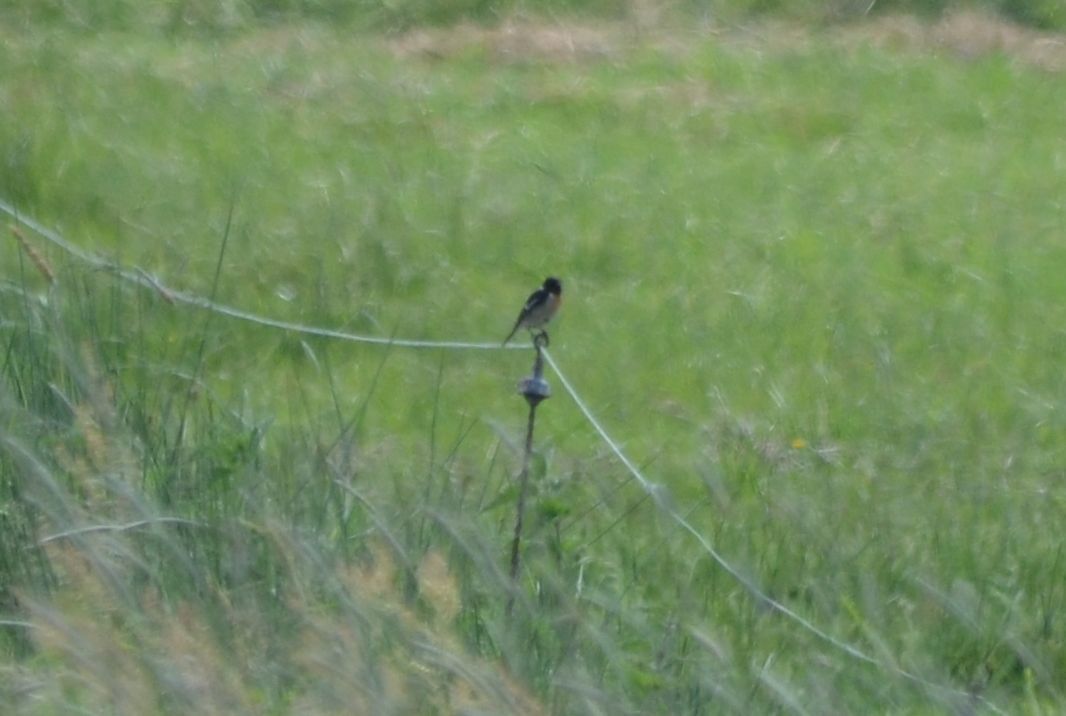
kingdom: Animalia
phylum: Chordata
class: Aves
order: Passeriformes
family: Muscicapidae
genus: Saxicola
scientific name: Saxicola rubicola
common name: European stonechat
